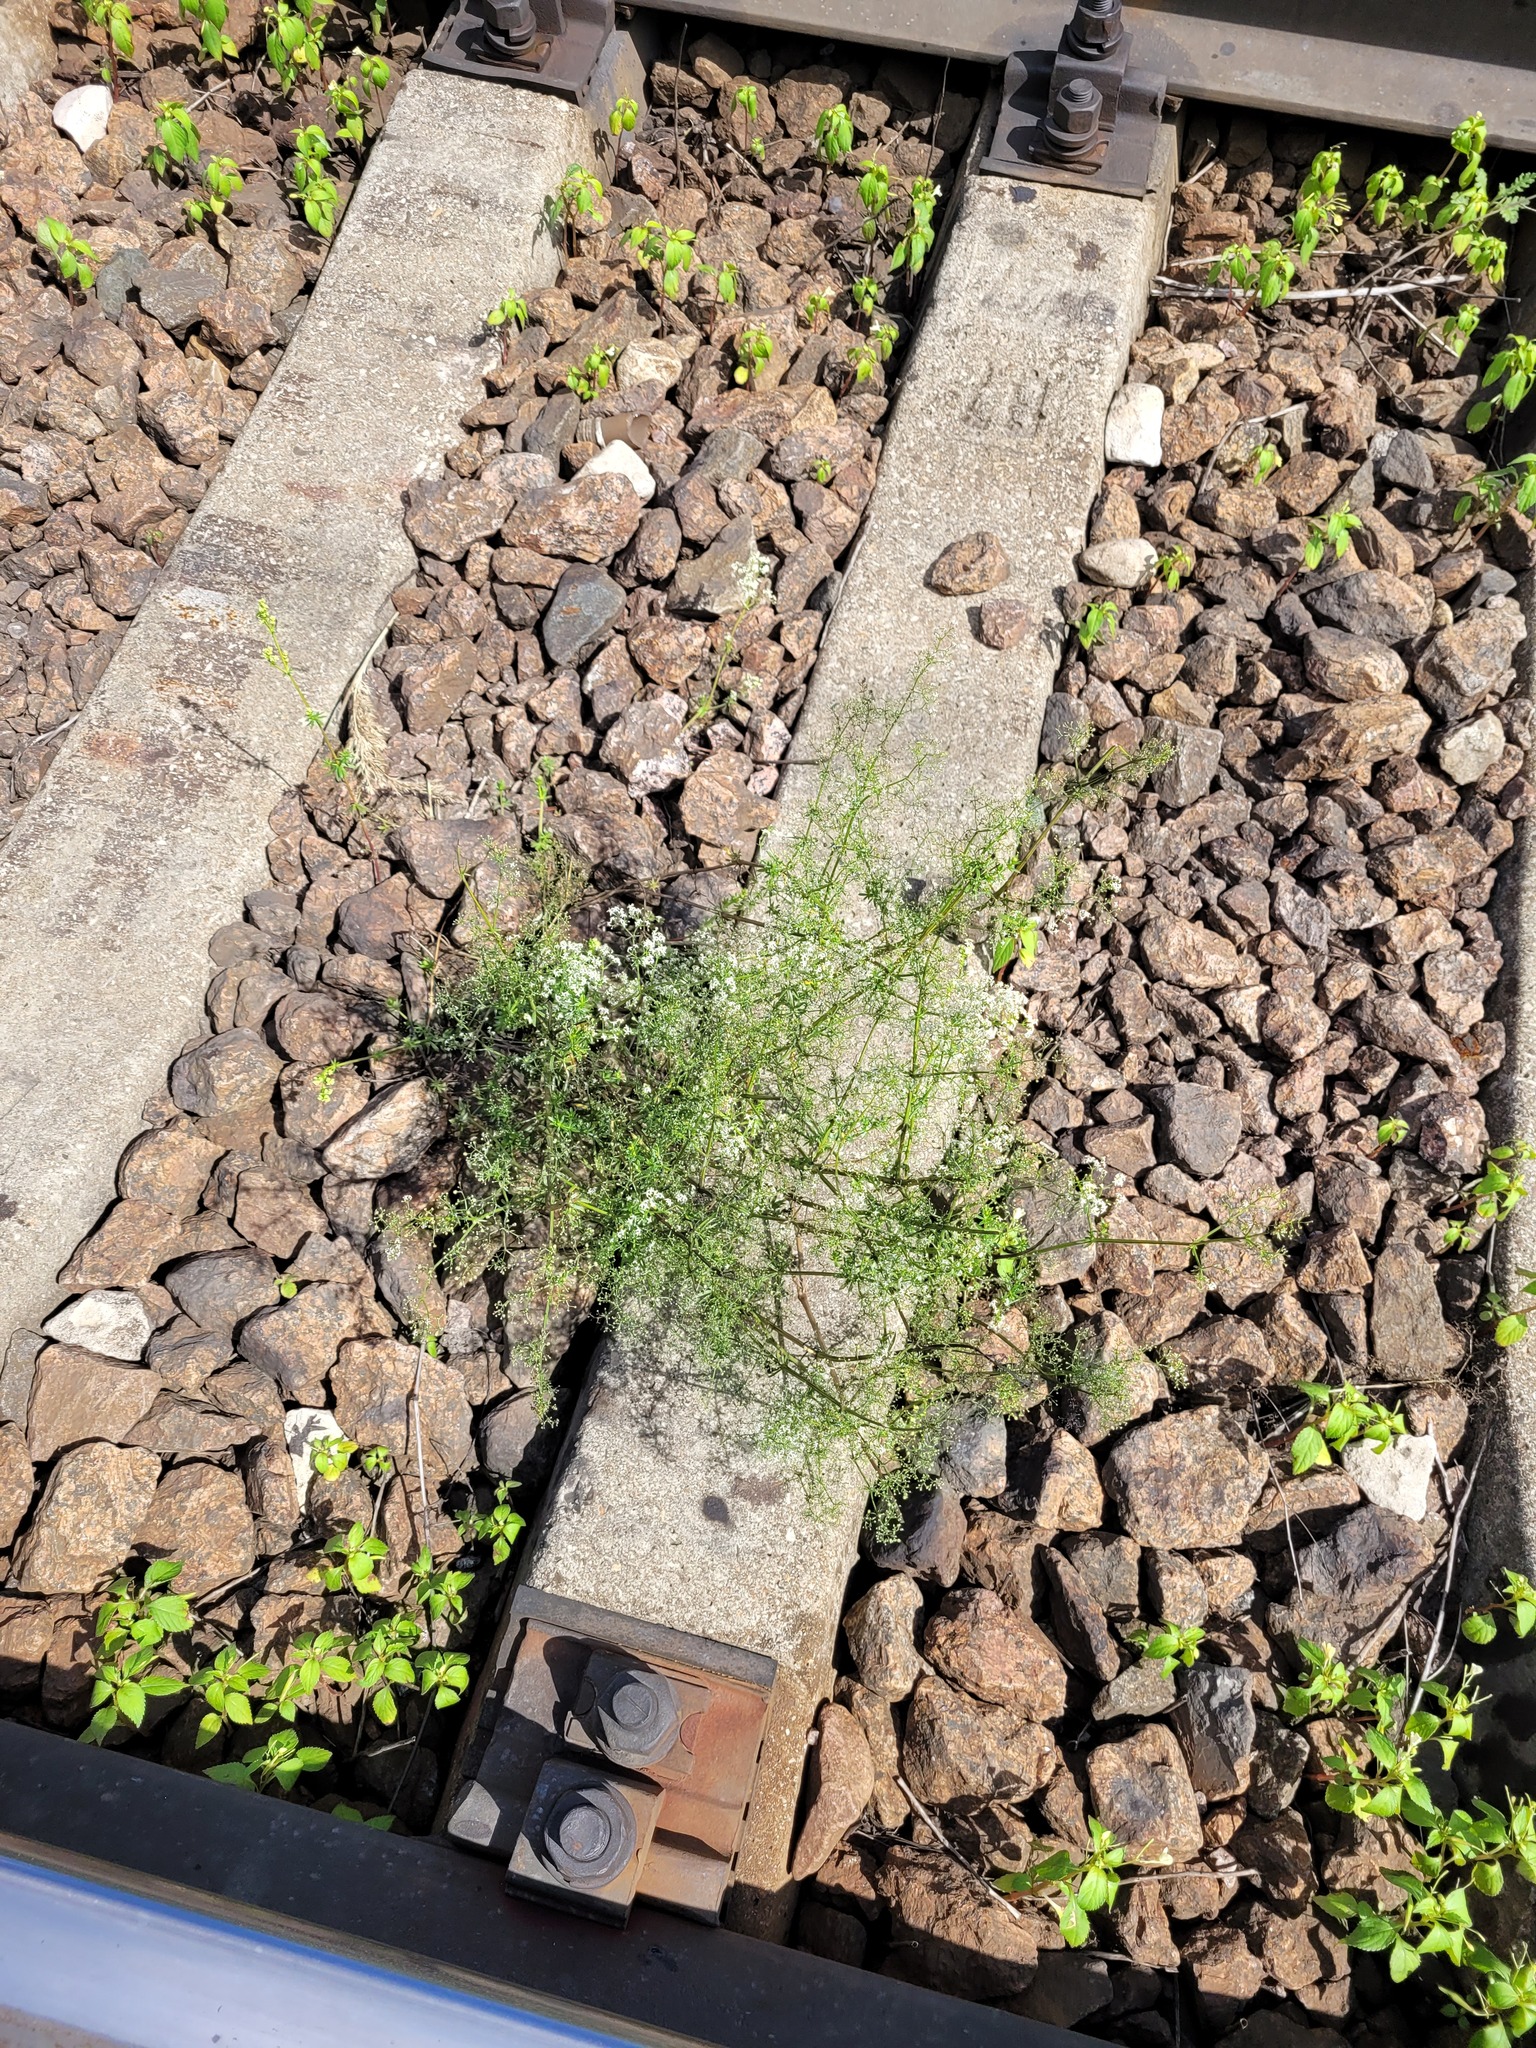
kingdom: Plantae
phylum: Tracheophyta
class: Magnoliopsida
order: Gentianales
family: Rubiaceae
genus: Galium
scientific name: Galium mollugo
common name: Hedge bedstraw
